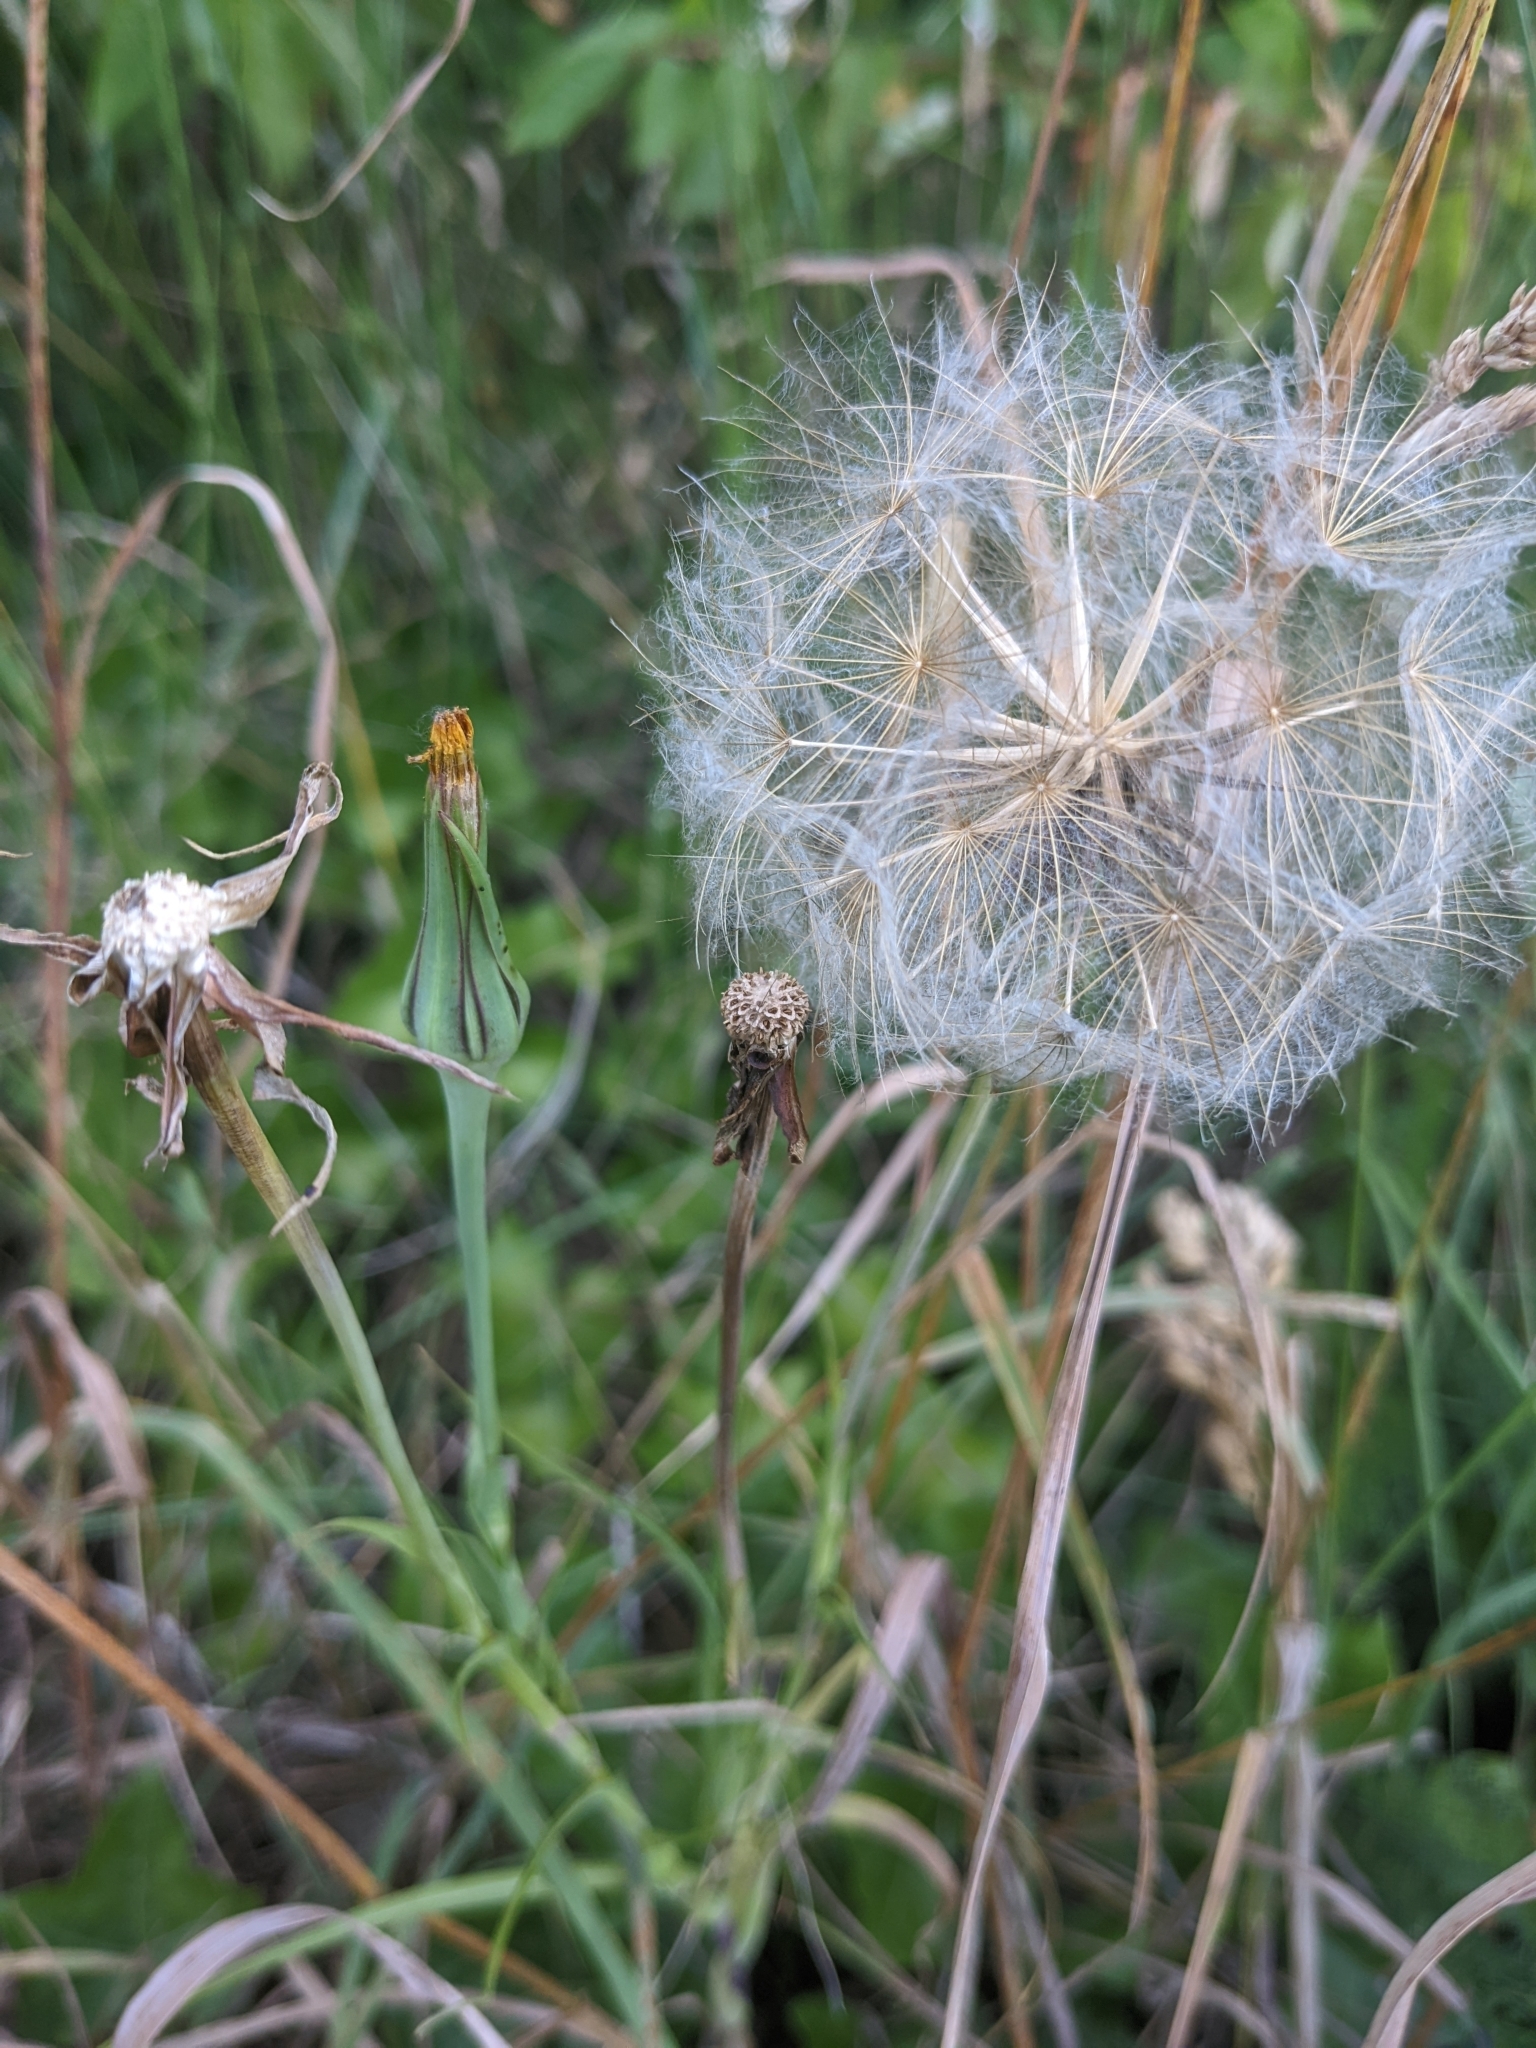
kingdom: Plantae
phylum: Tracheophyta
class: Magnoliopsida
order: Asterales
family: Asteraceae
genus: Tragopogon
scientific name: Tragopogon pratensis
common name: Goat's-beard
